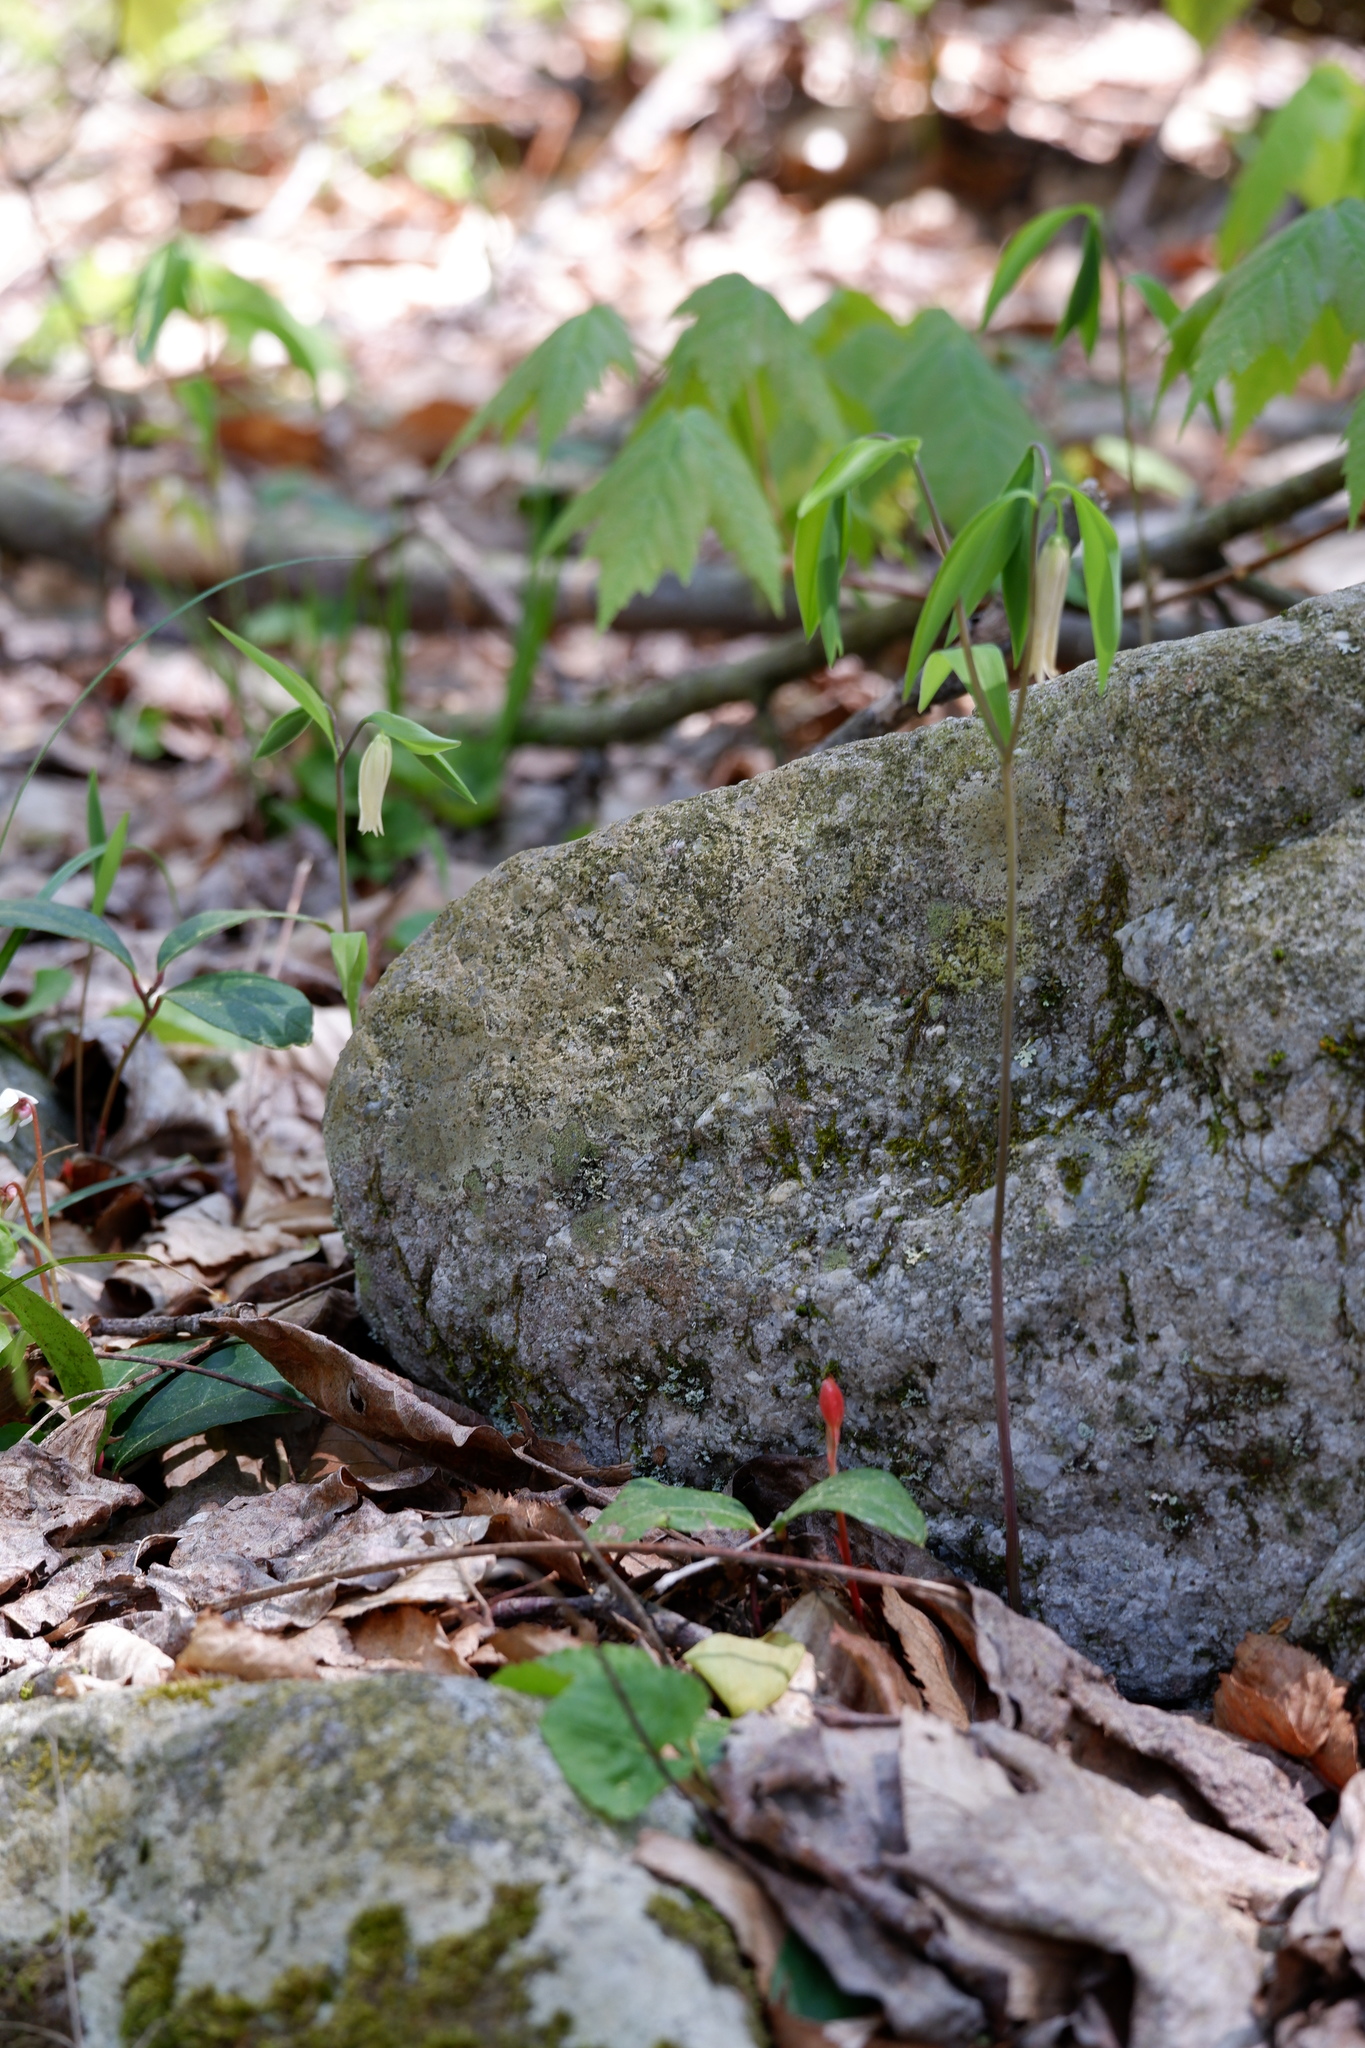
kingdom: Plantae
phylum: Tracheophyta
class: Liliopsida
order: Liliales
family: Colchicaceae
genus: Uvularia
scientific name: Uvularia sessilifolia
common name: Straw-lily
